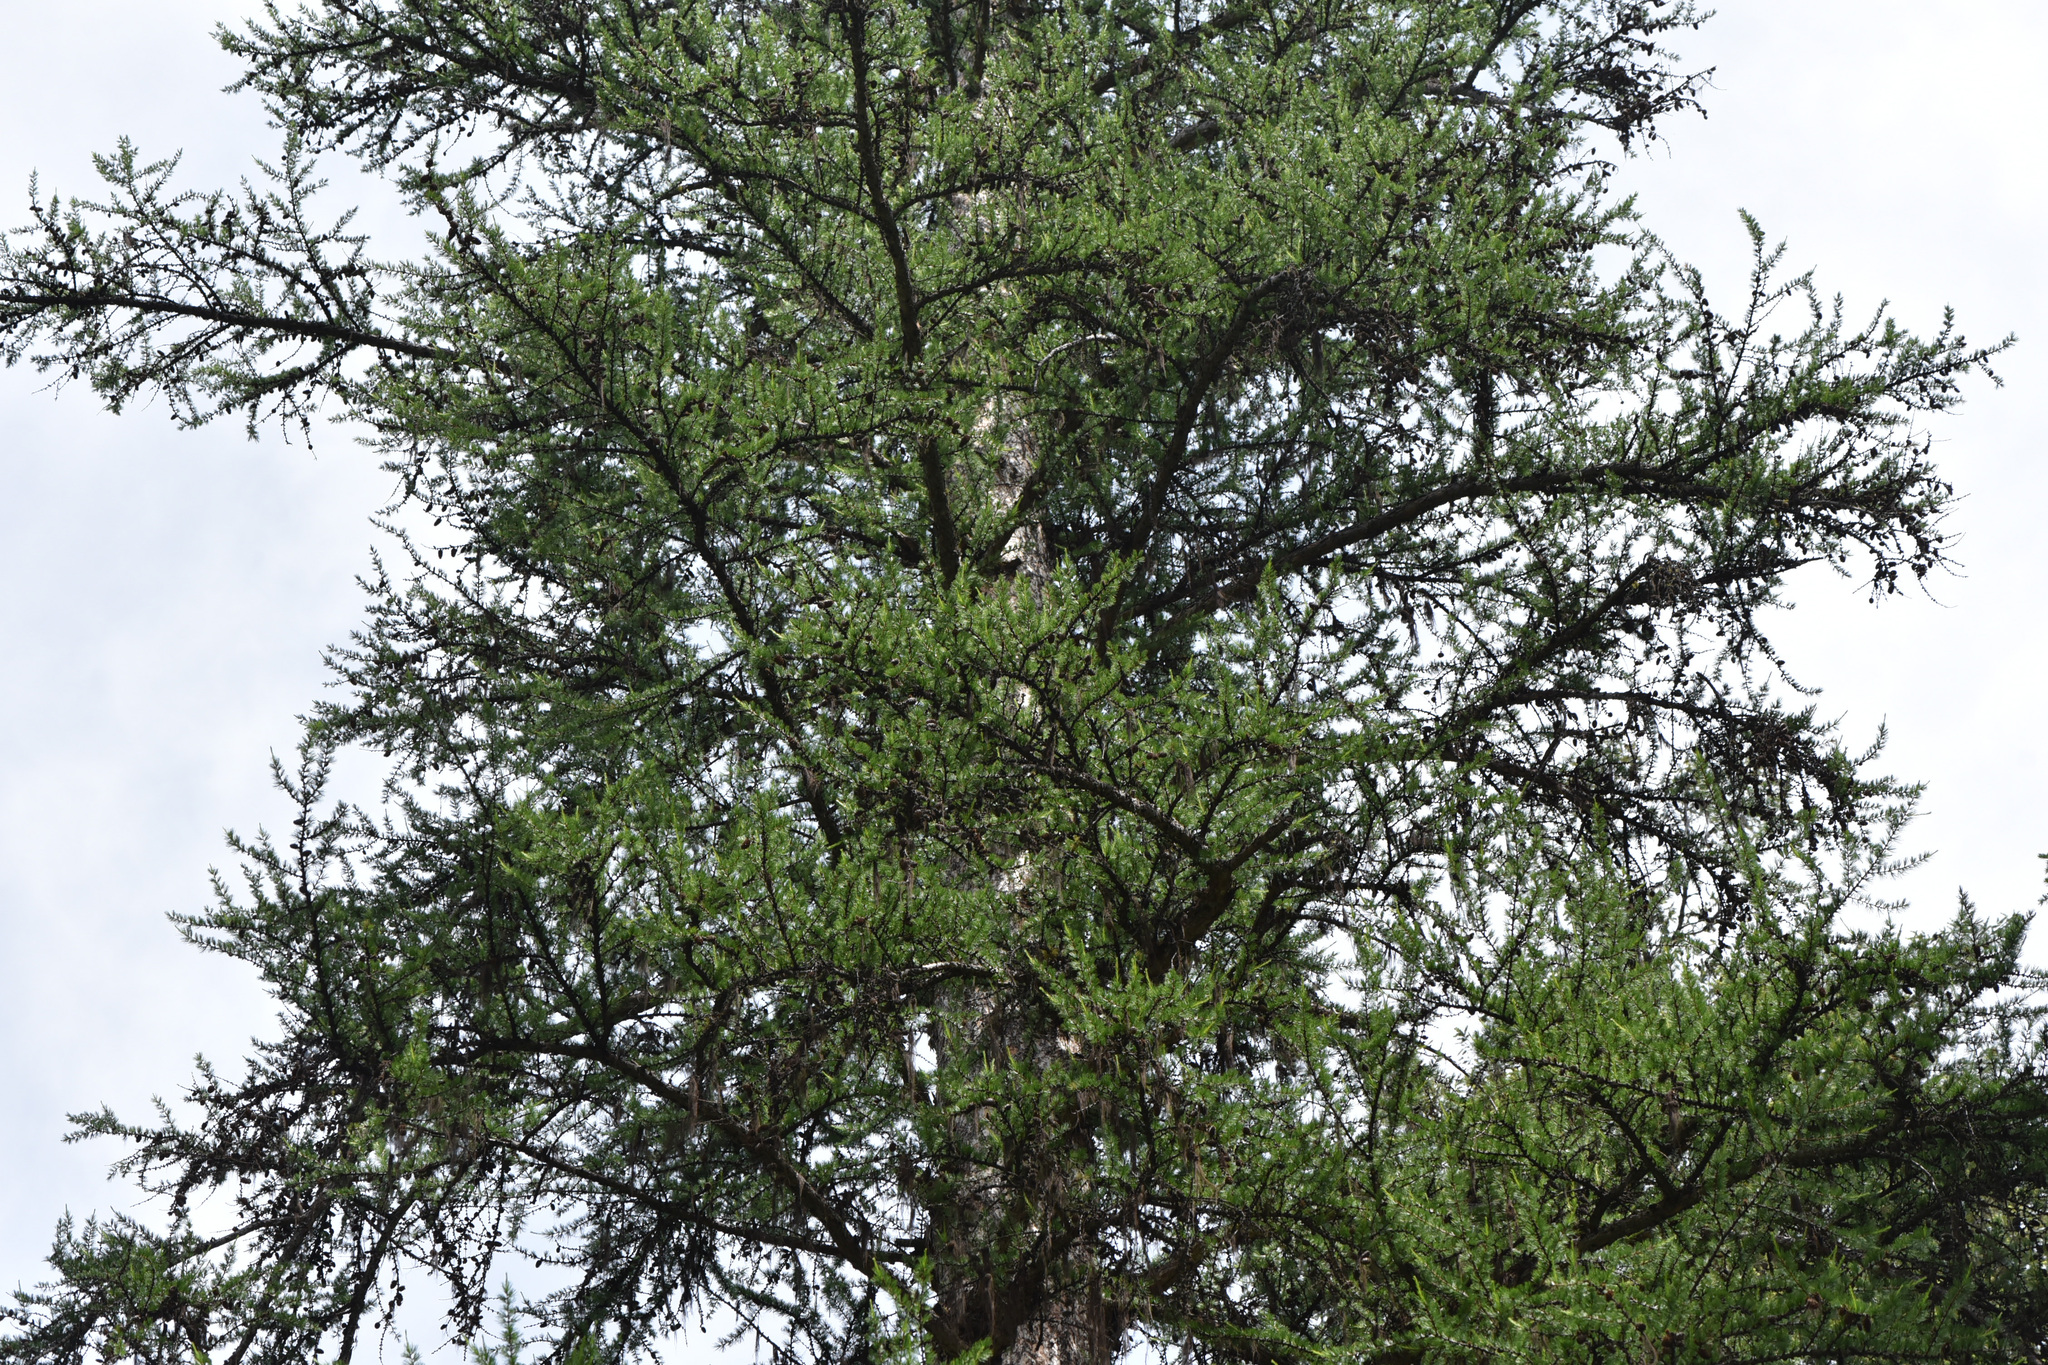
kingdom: Plantae
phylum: Tracheophyta
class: Pinopsida
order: Pinales
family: Pinaceae
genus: Larix
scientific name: Larix occidentalis
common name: Western larch
